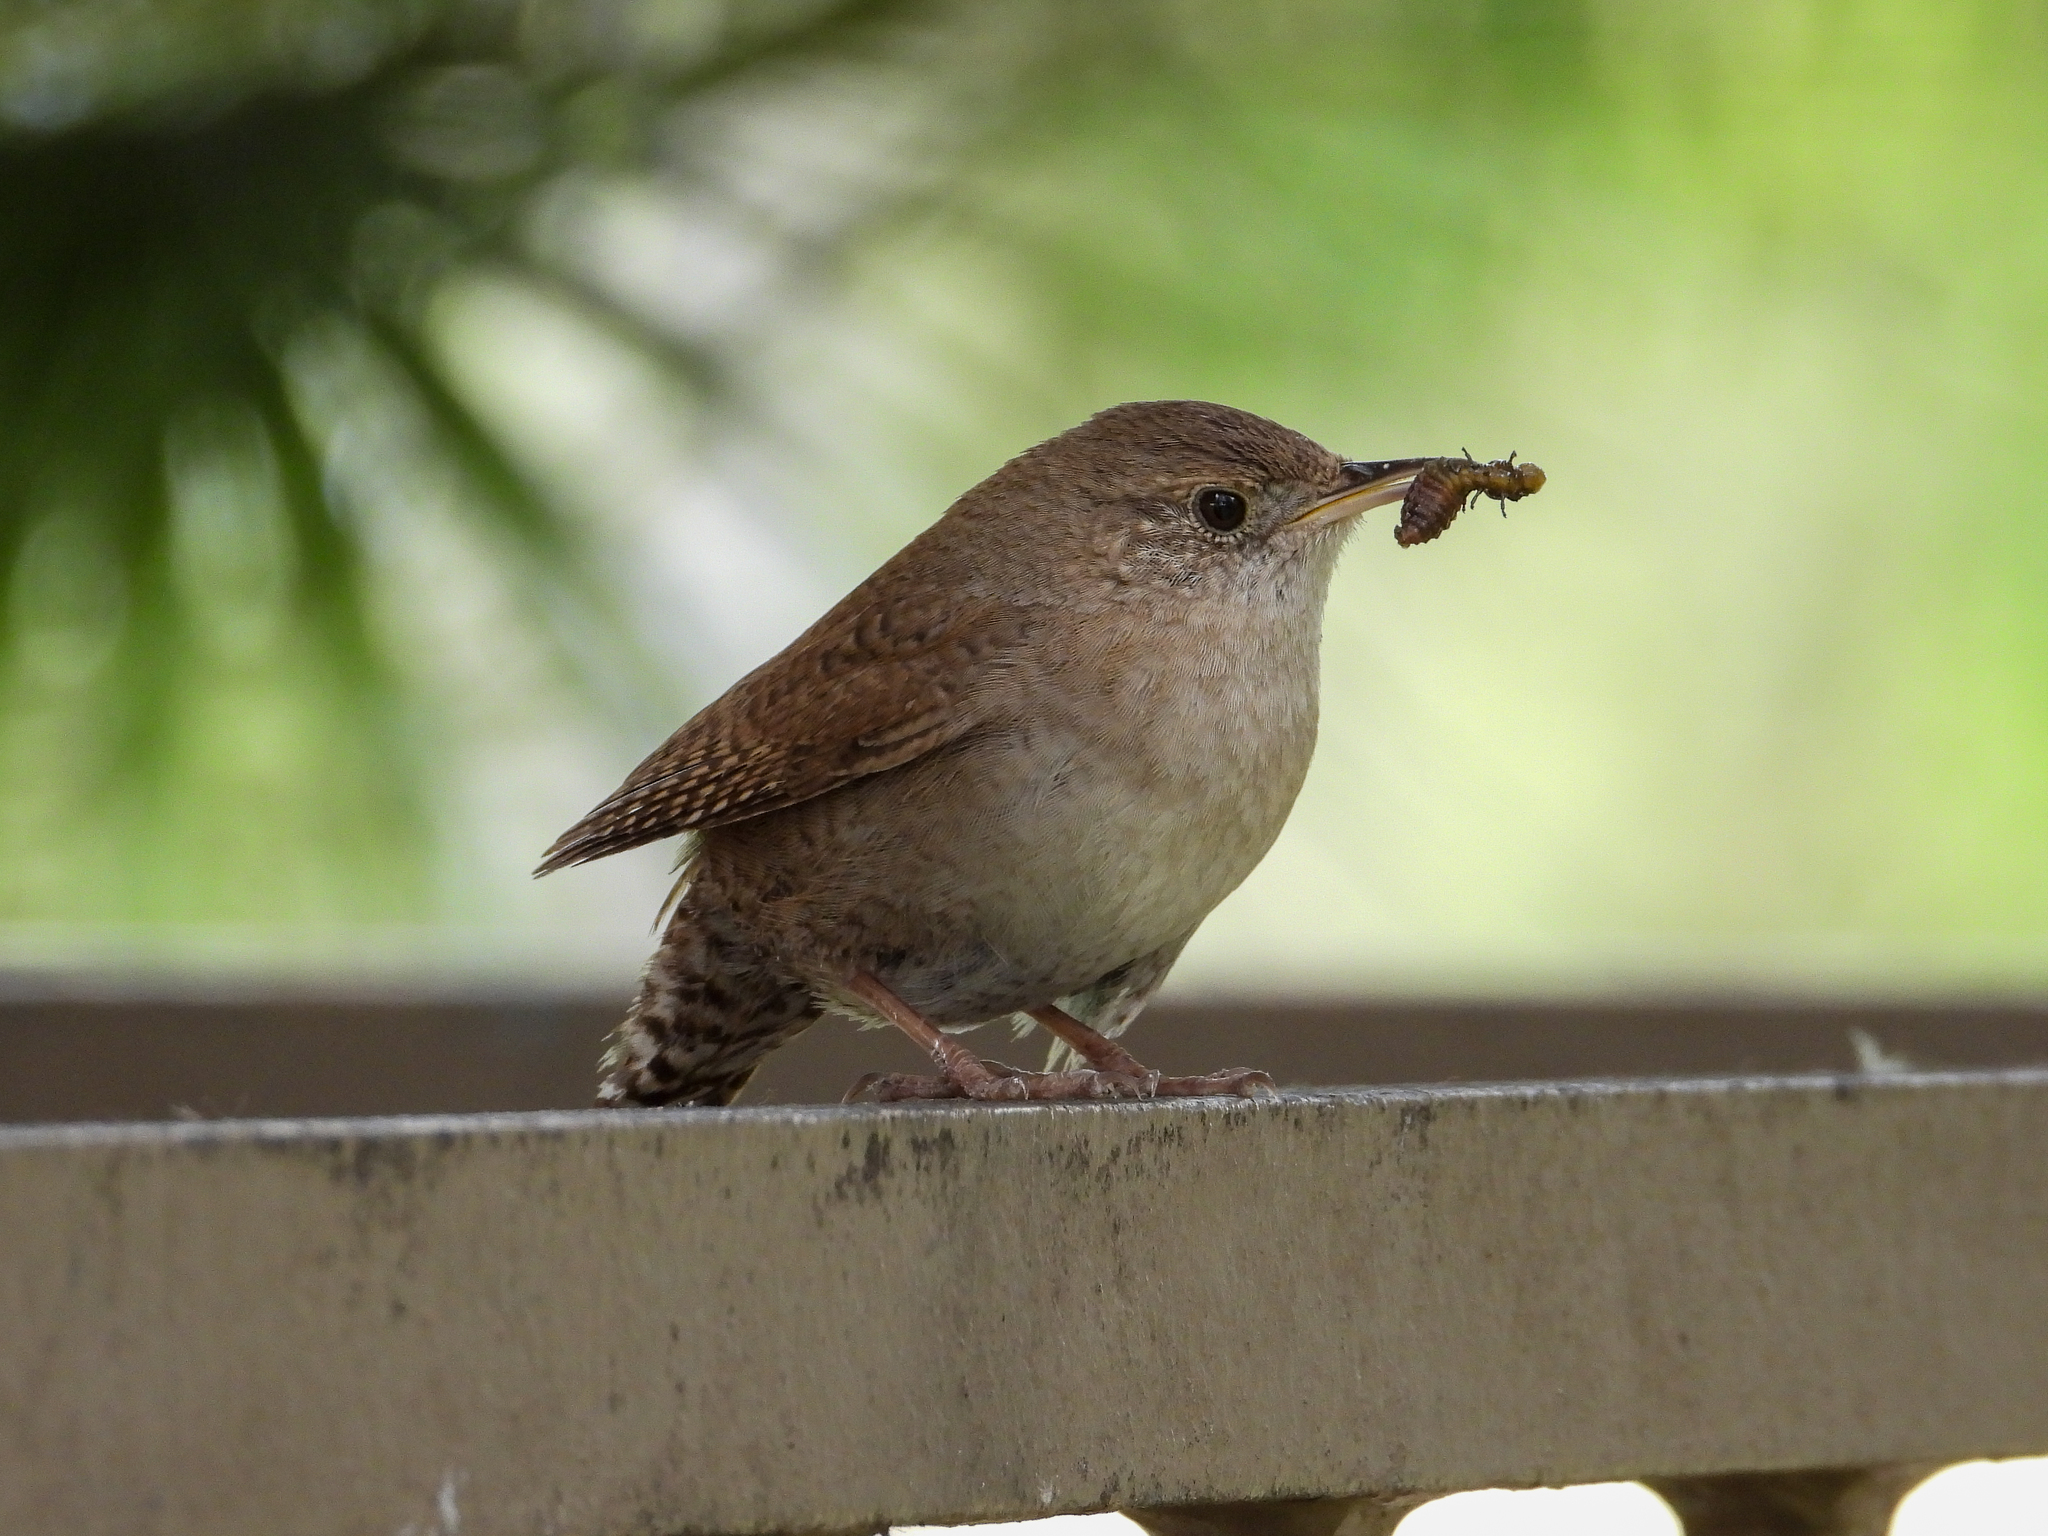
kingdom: Animalia
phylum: Chordata
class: Aves
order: Passeriformes
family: Troglodytidae
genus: Troglodytes
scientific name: Troglodytes aedon
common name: House wren
